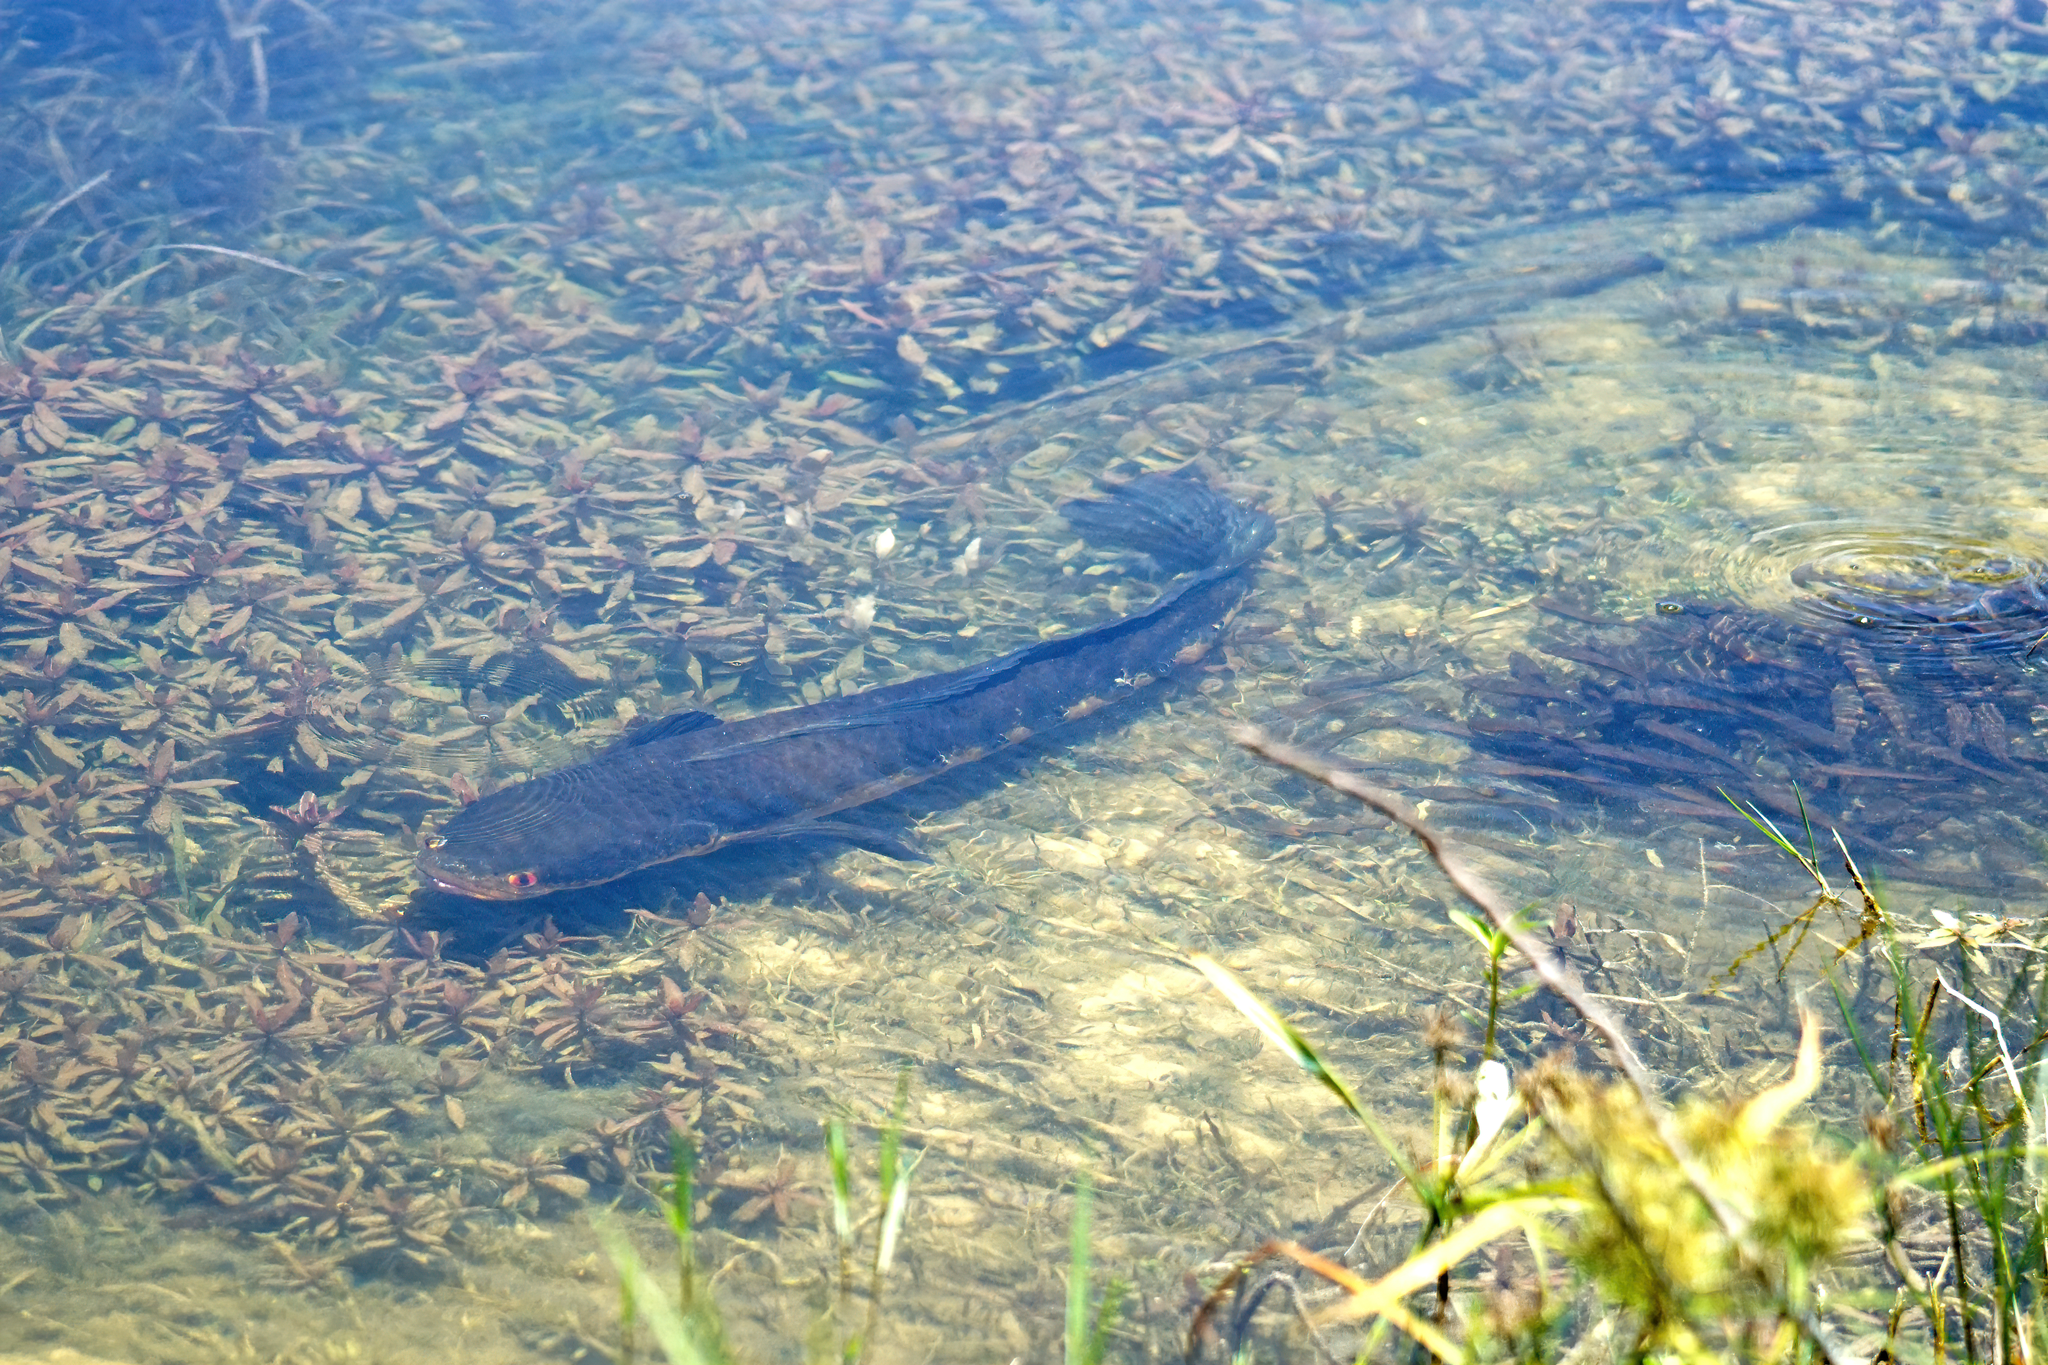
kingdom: Animalia
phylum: Chordata
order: Perciformes
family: Channidae
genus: Channa
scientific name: Channa marulius
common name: Giant snakehead
